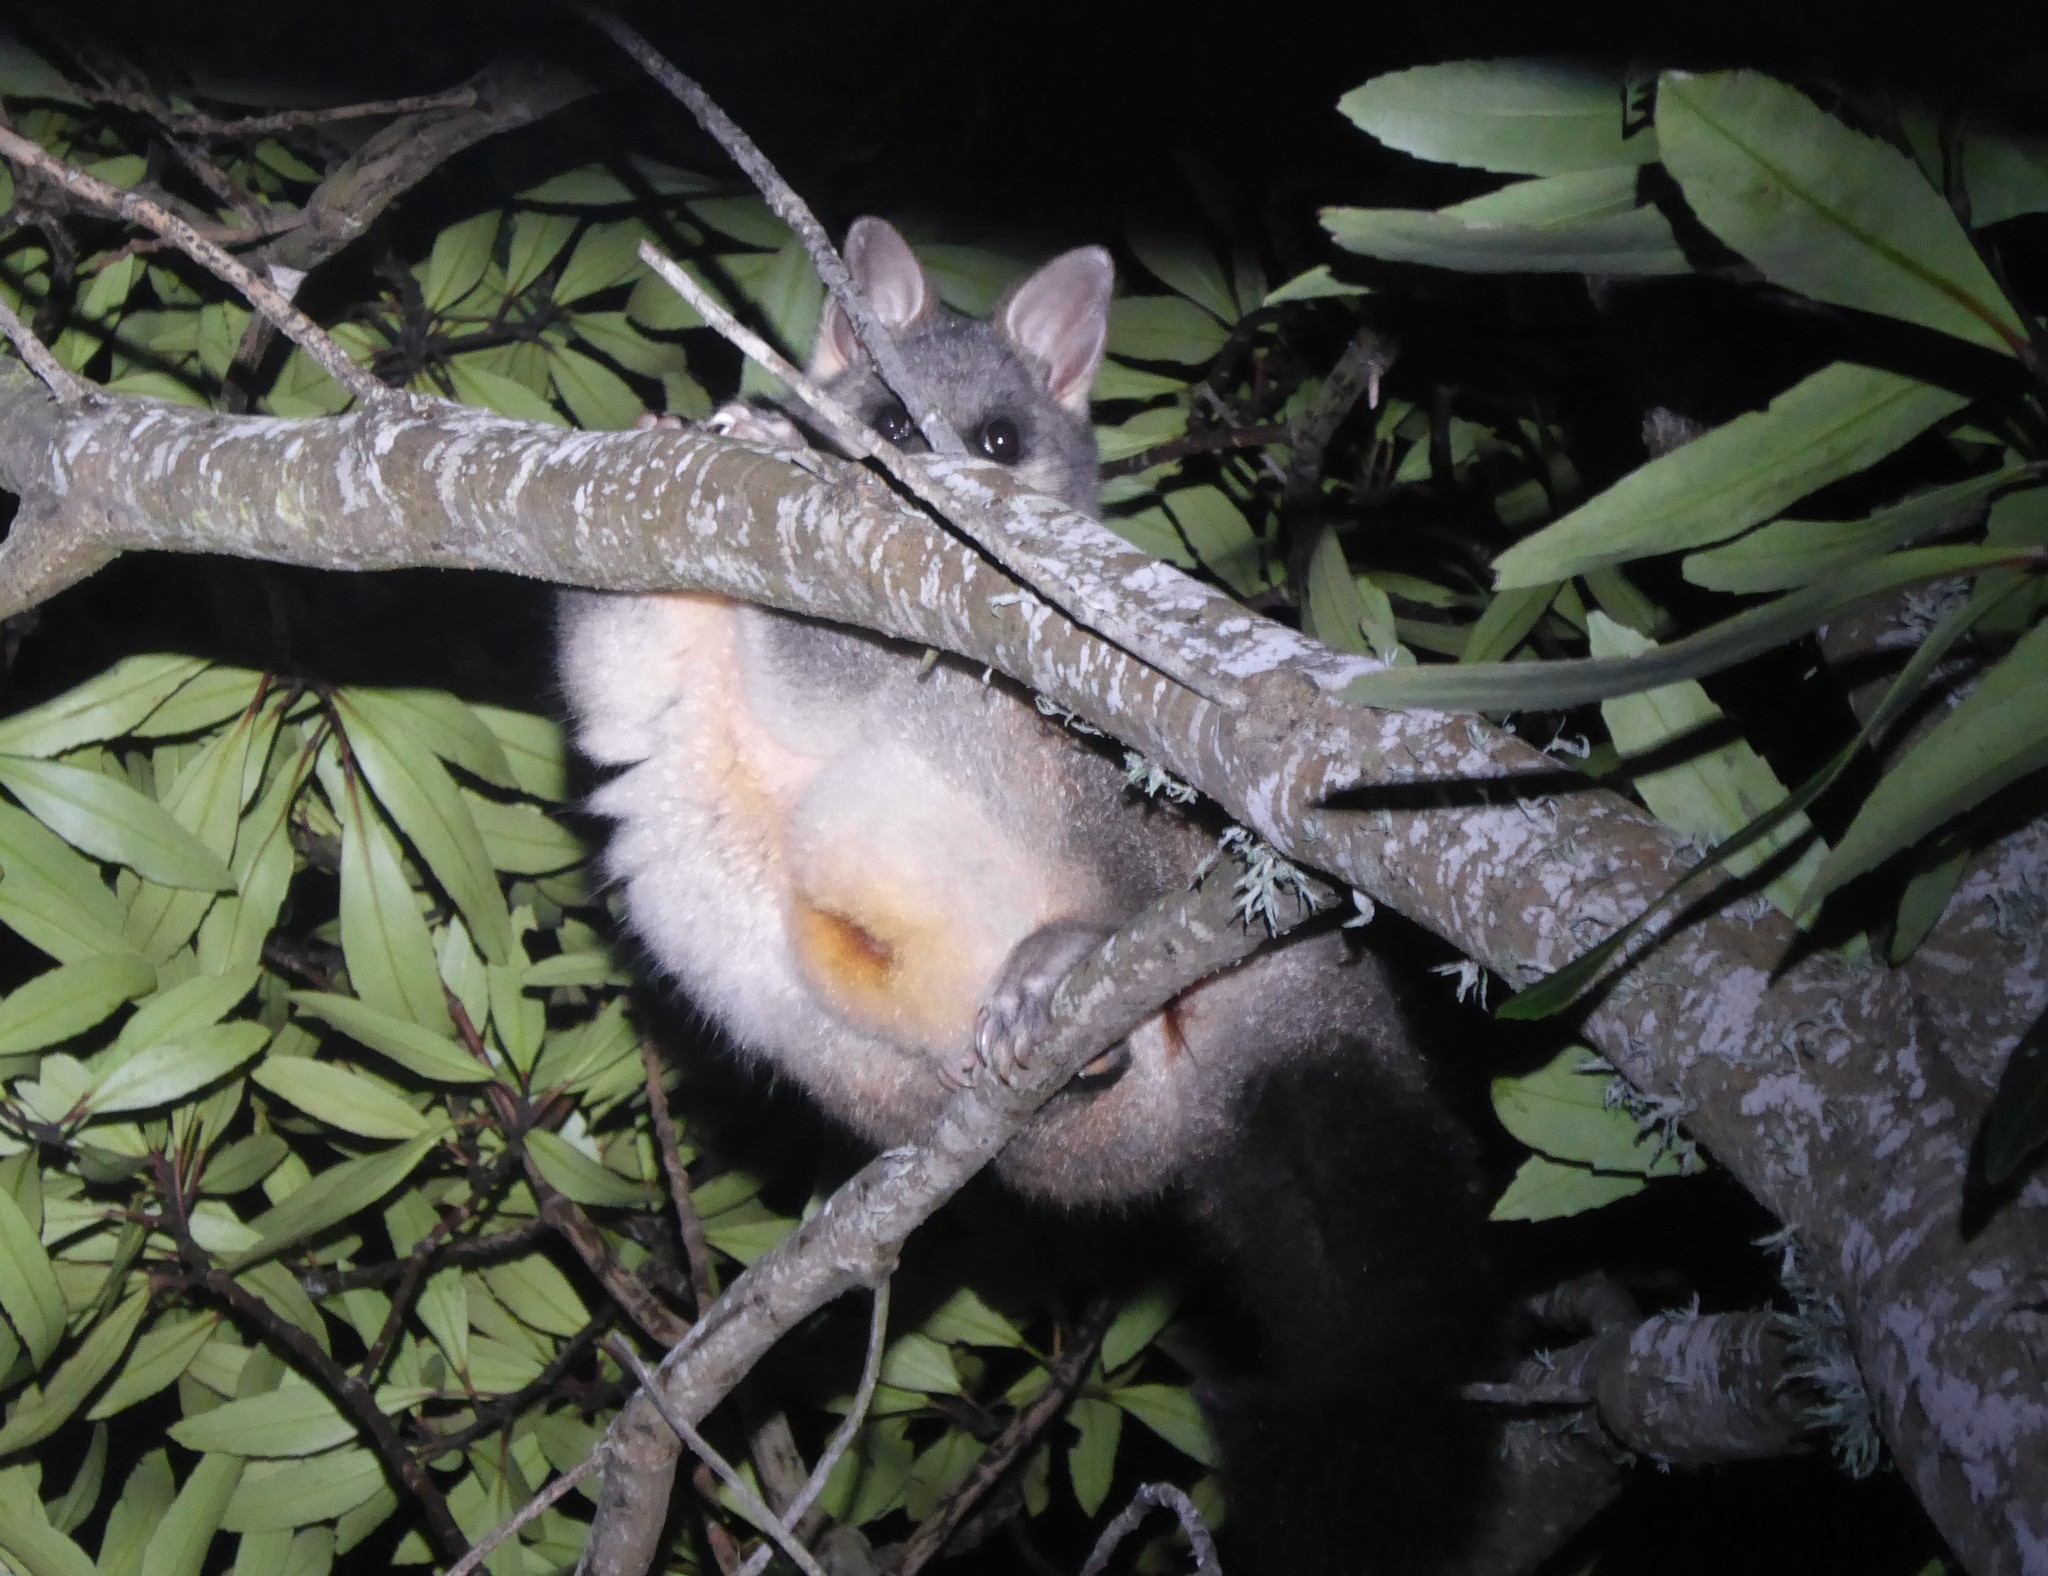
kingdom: Animalia
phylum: Chordata
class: Mammalia
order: Diprotodontia
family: Phalangeridae
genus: Trichosurus
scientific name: Trichosurus vulpecula
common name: Common brushtail
